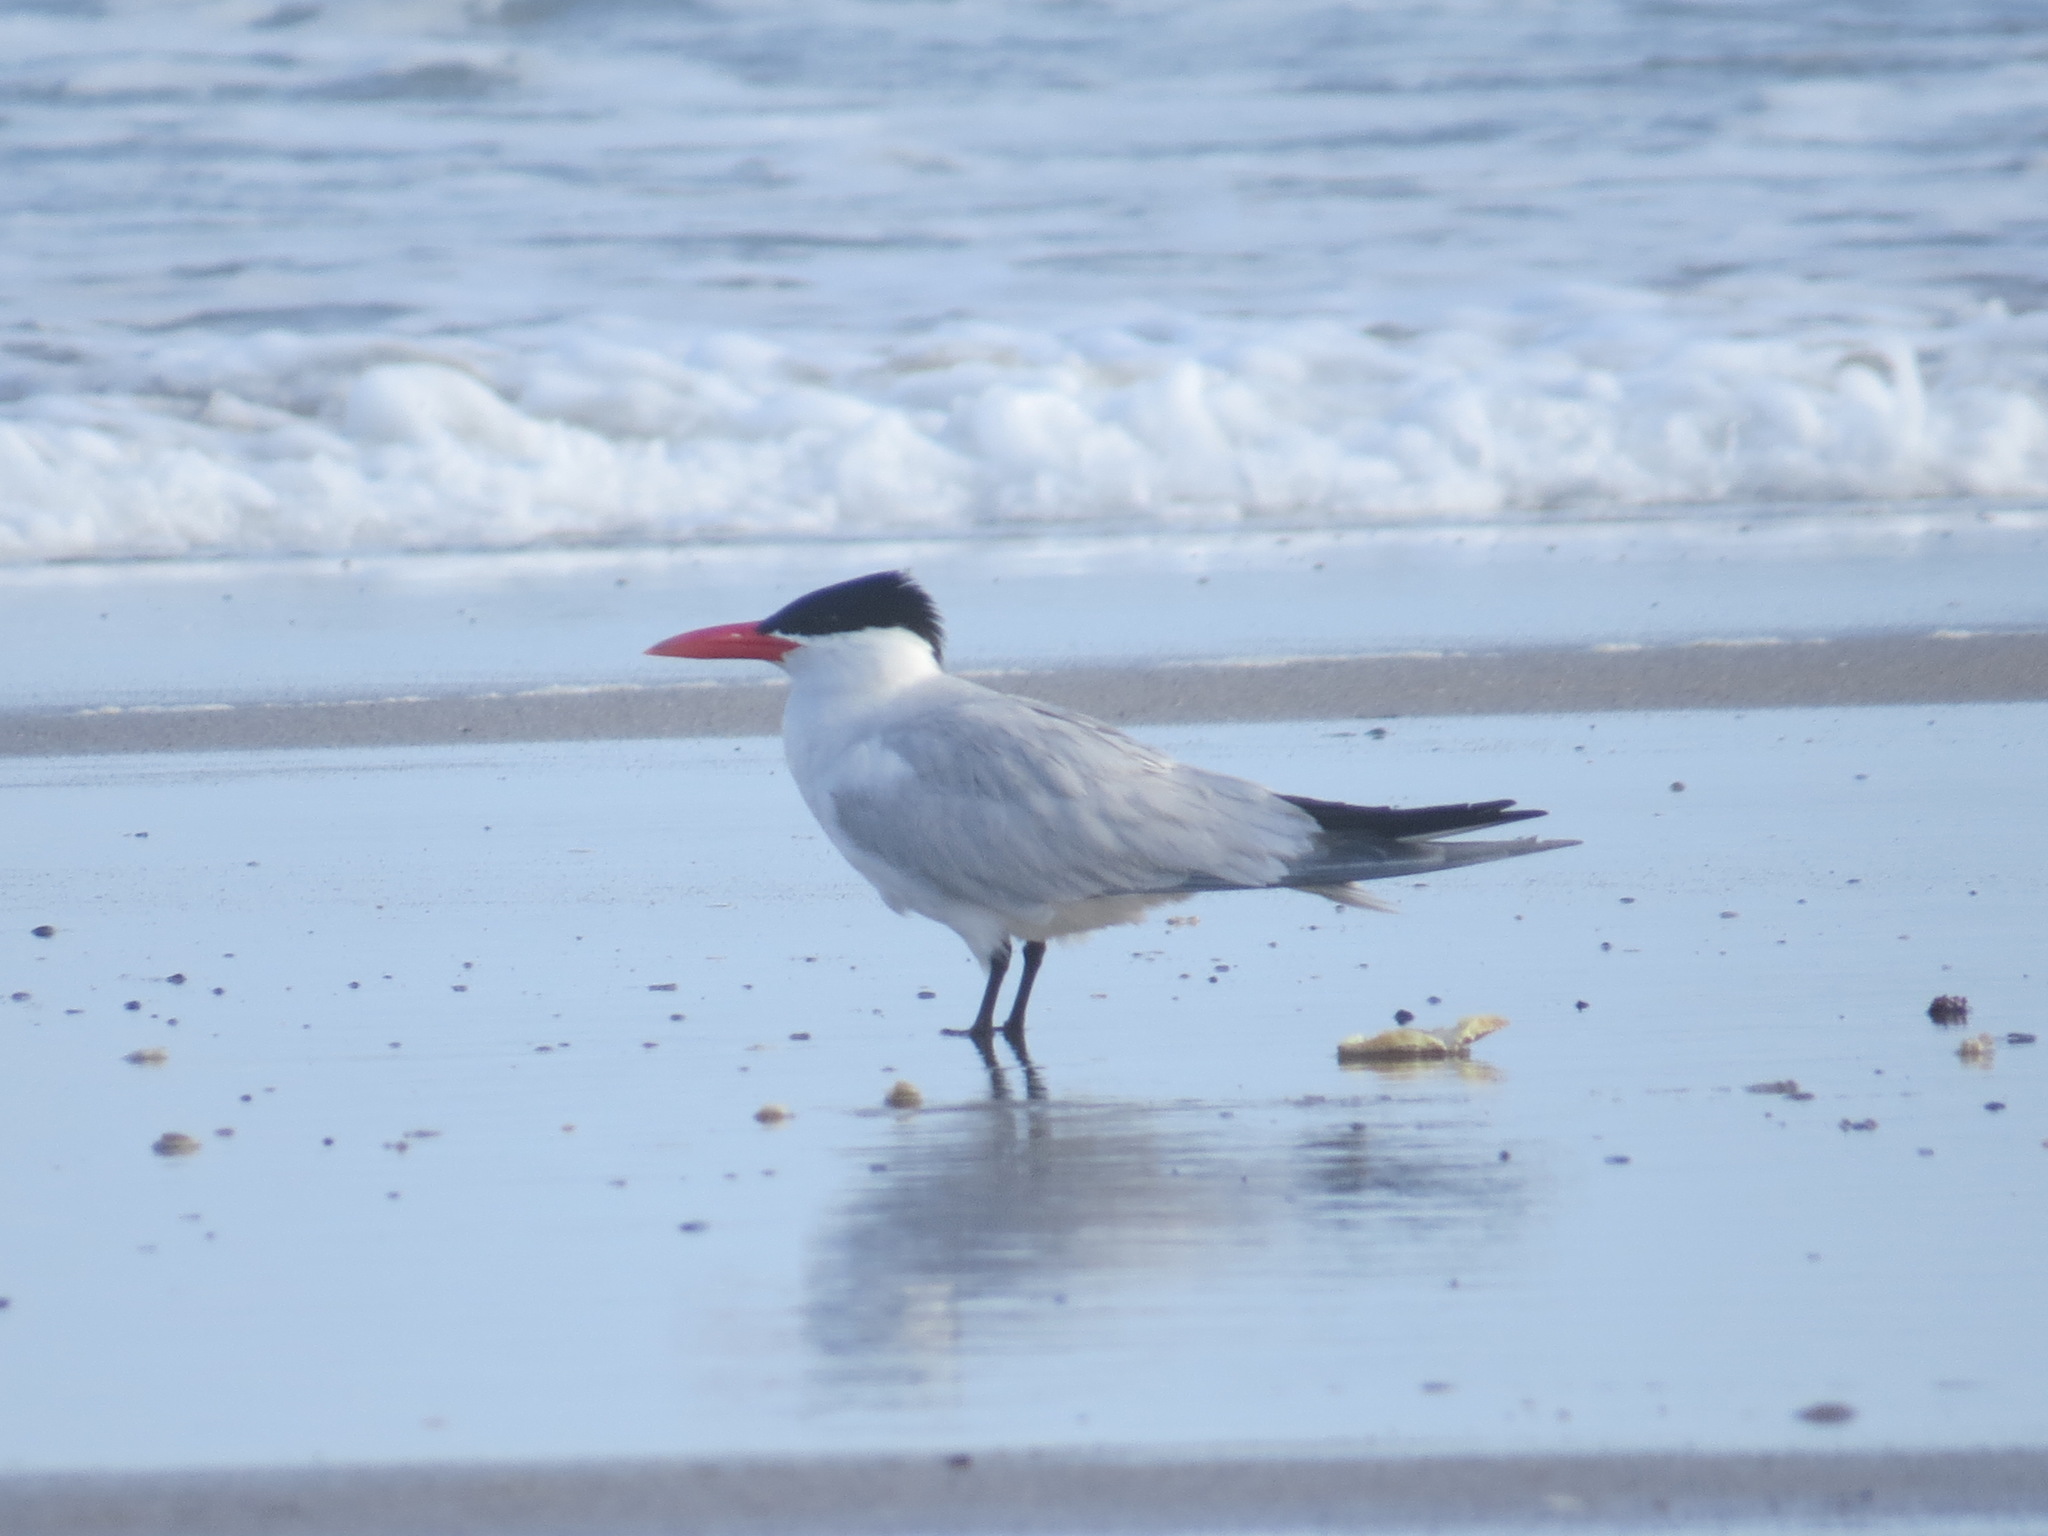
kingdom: Animalia
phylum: Chordata
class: Aves
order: Charadriiformes
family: Laridae
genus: Hydroprogne
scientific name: Hydroprogne caspia
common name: Caspian tern
